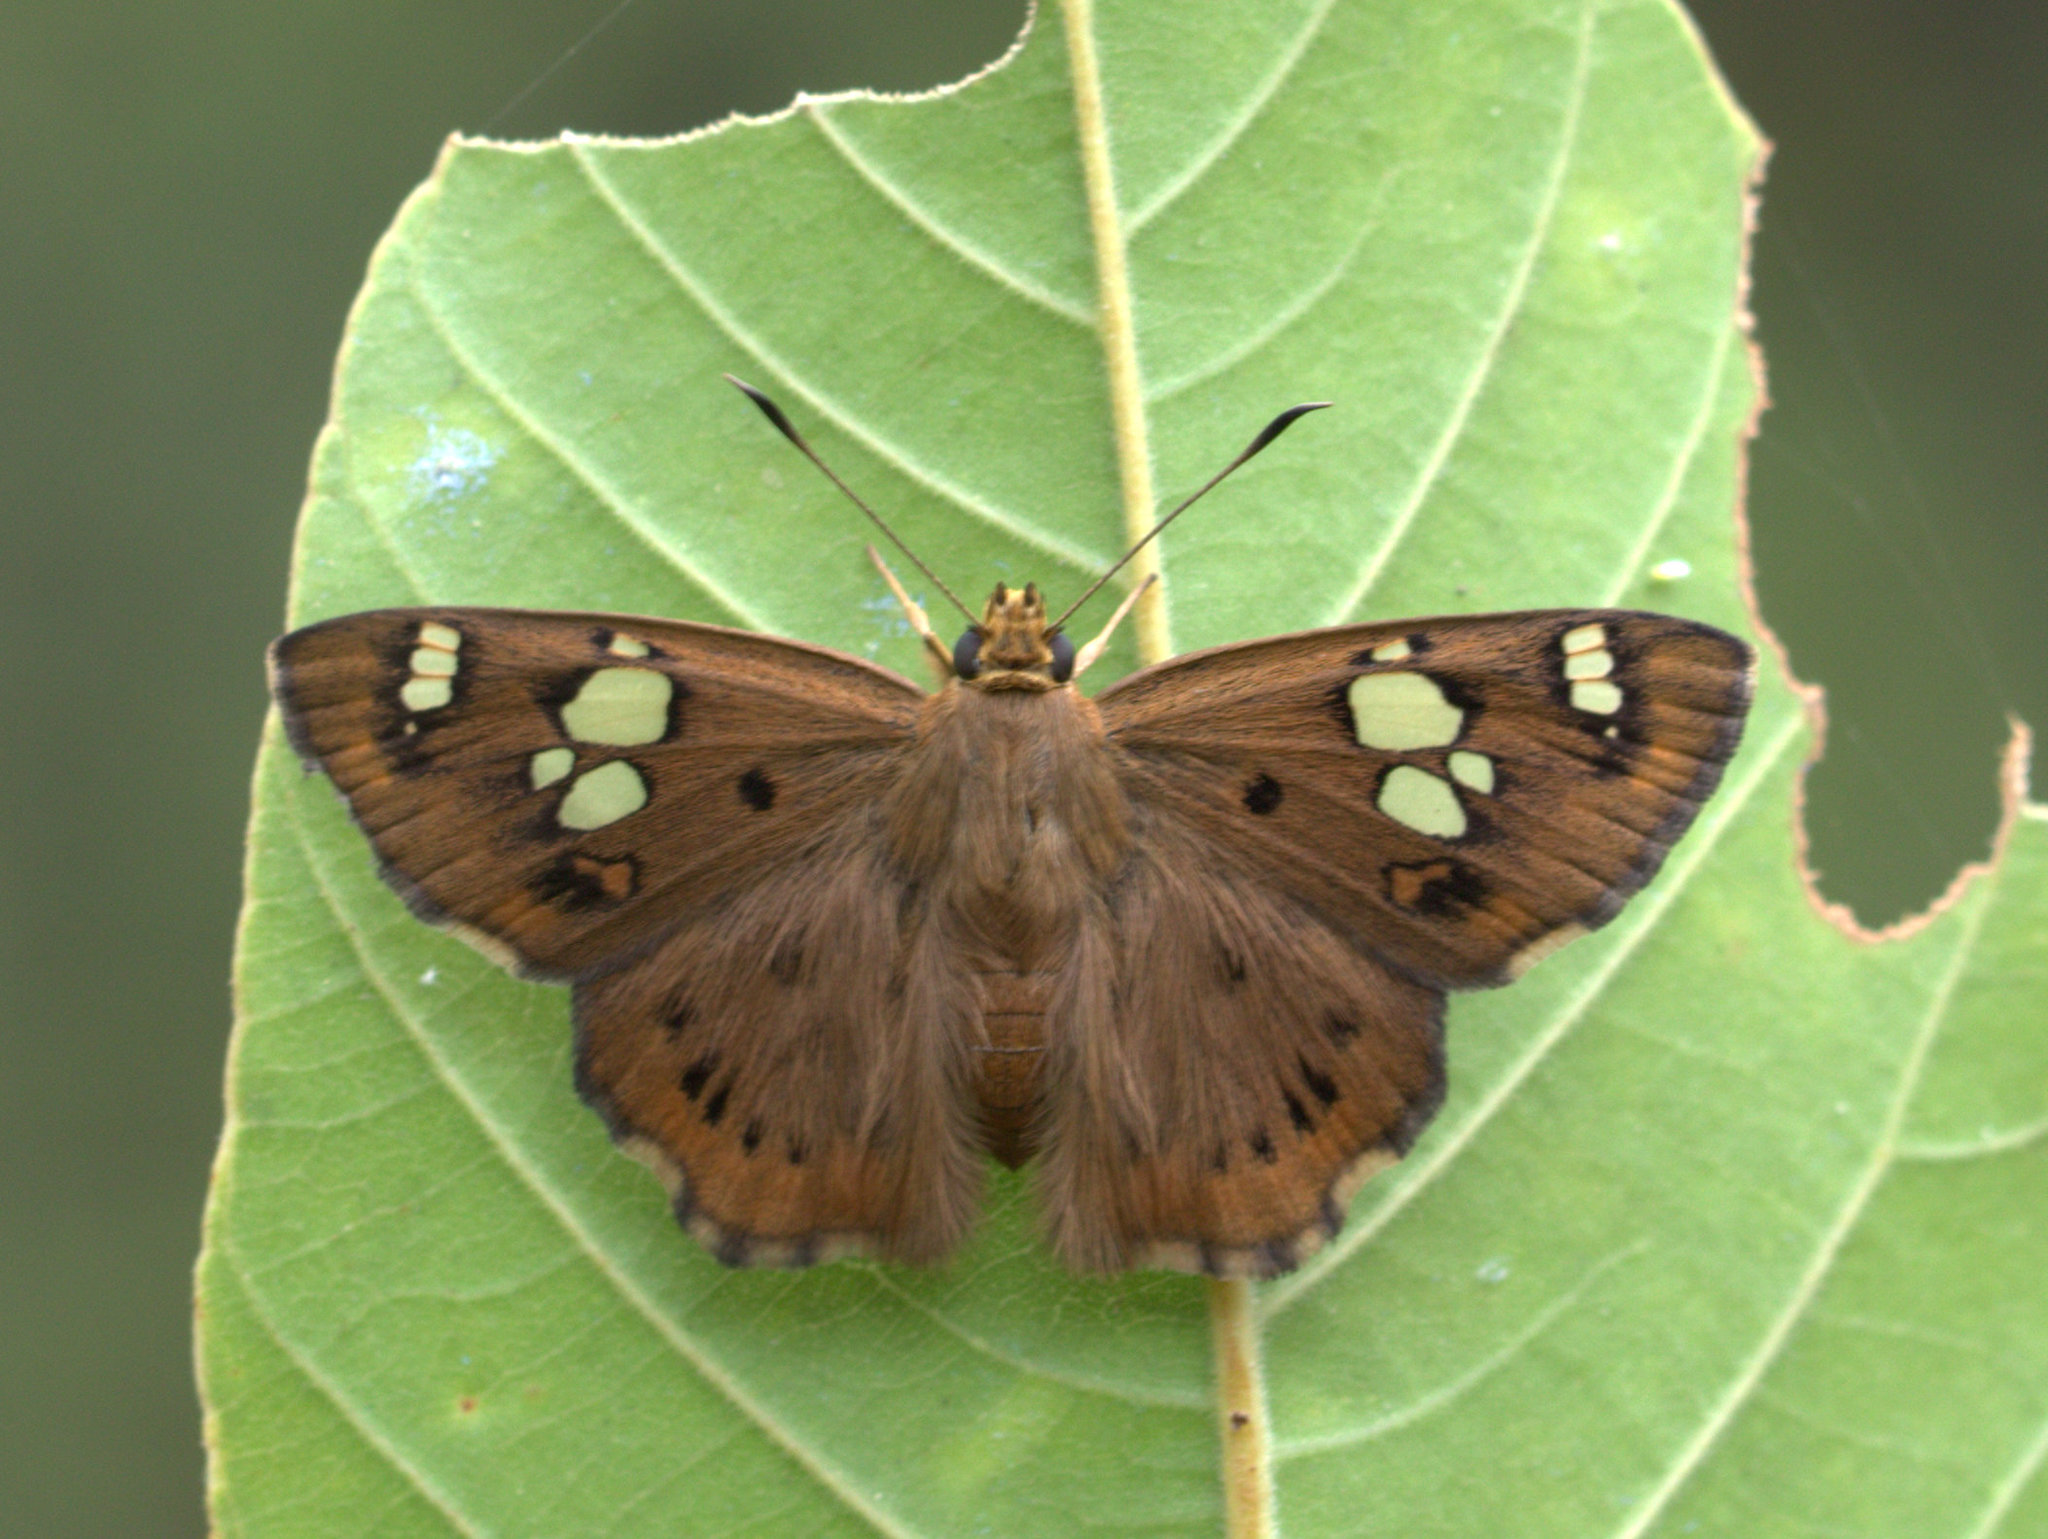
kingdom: Animalia
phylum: Arthropoda
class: Insecta
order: Lepidoptera
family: Hesperiidae
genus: Coladenia
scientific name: Coladenia
